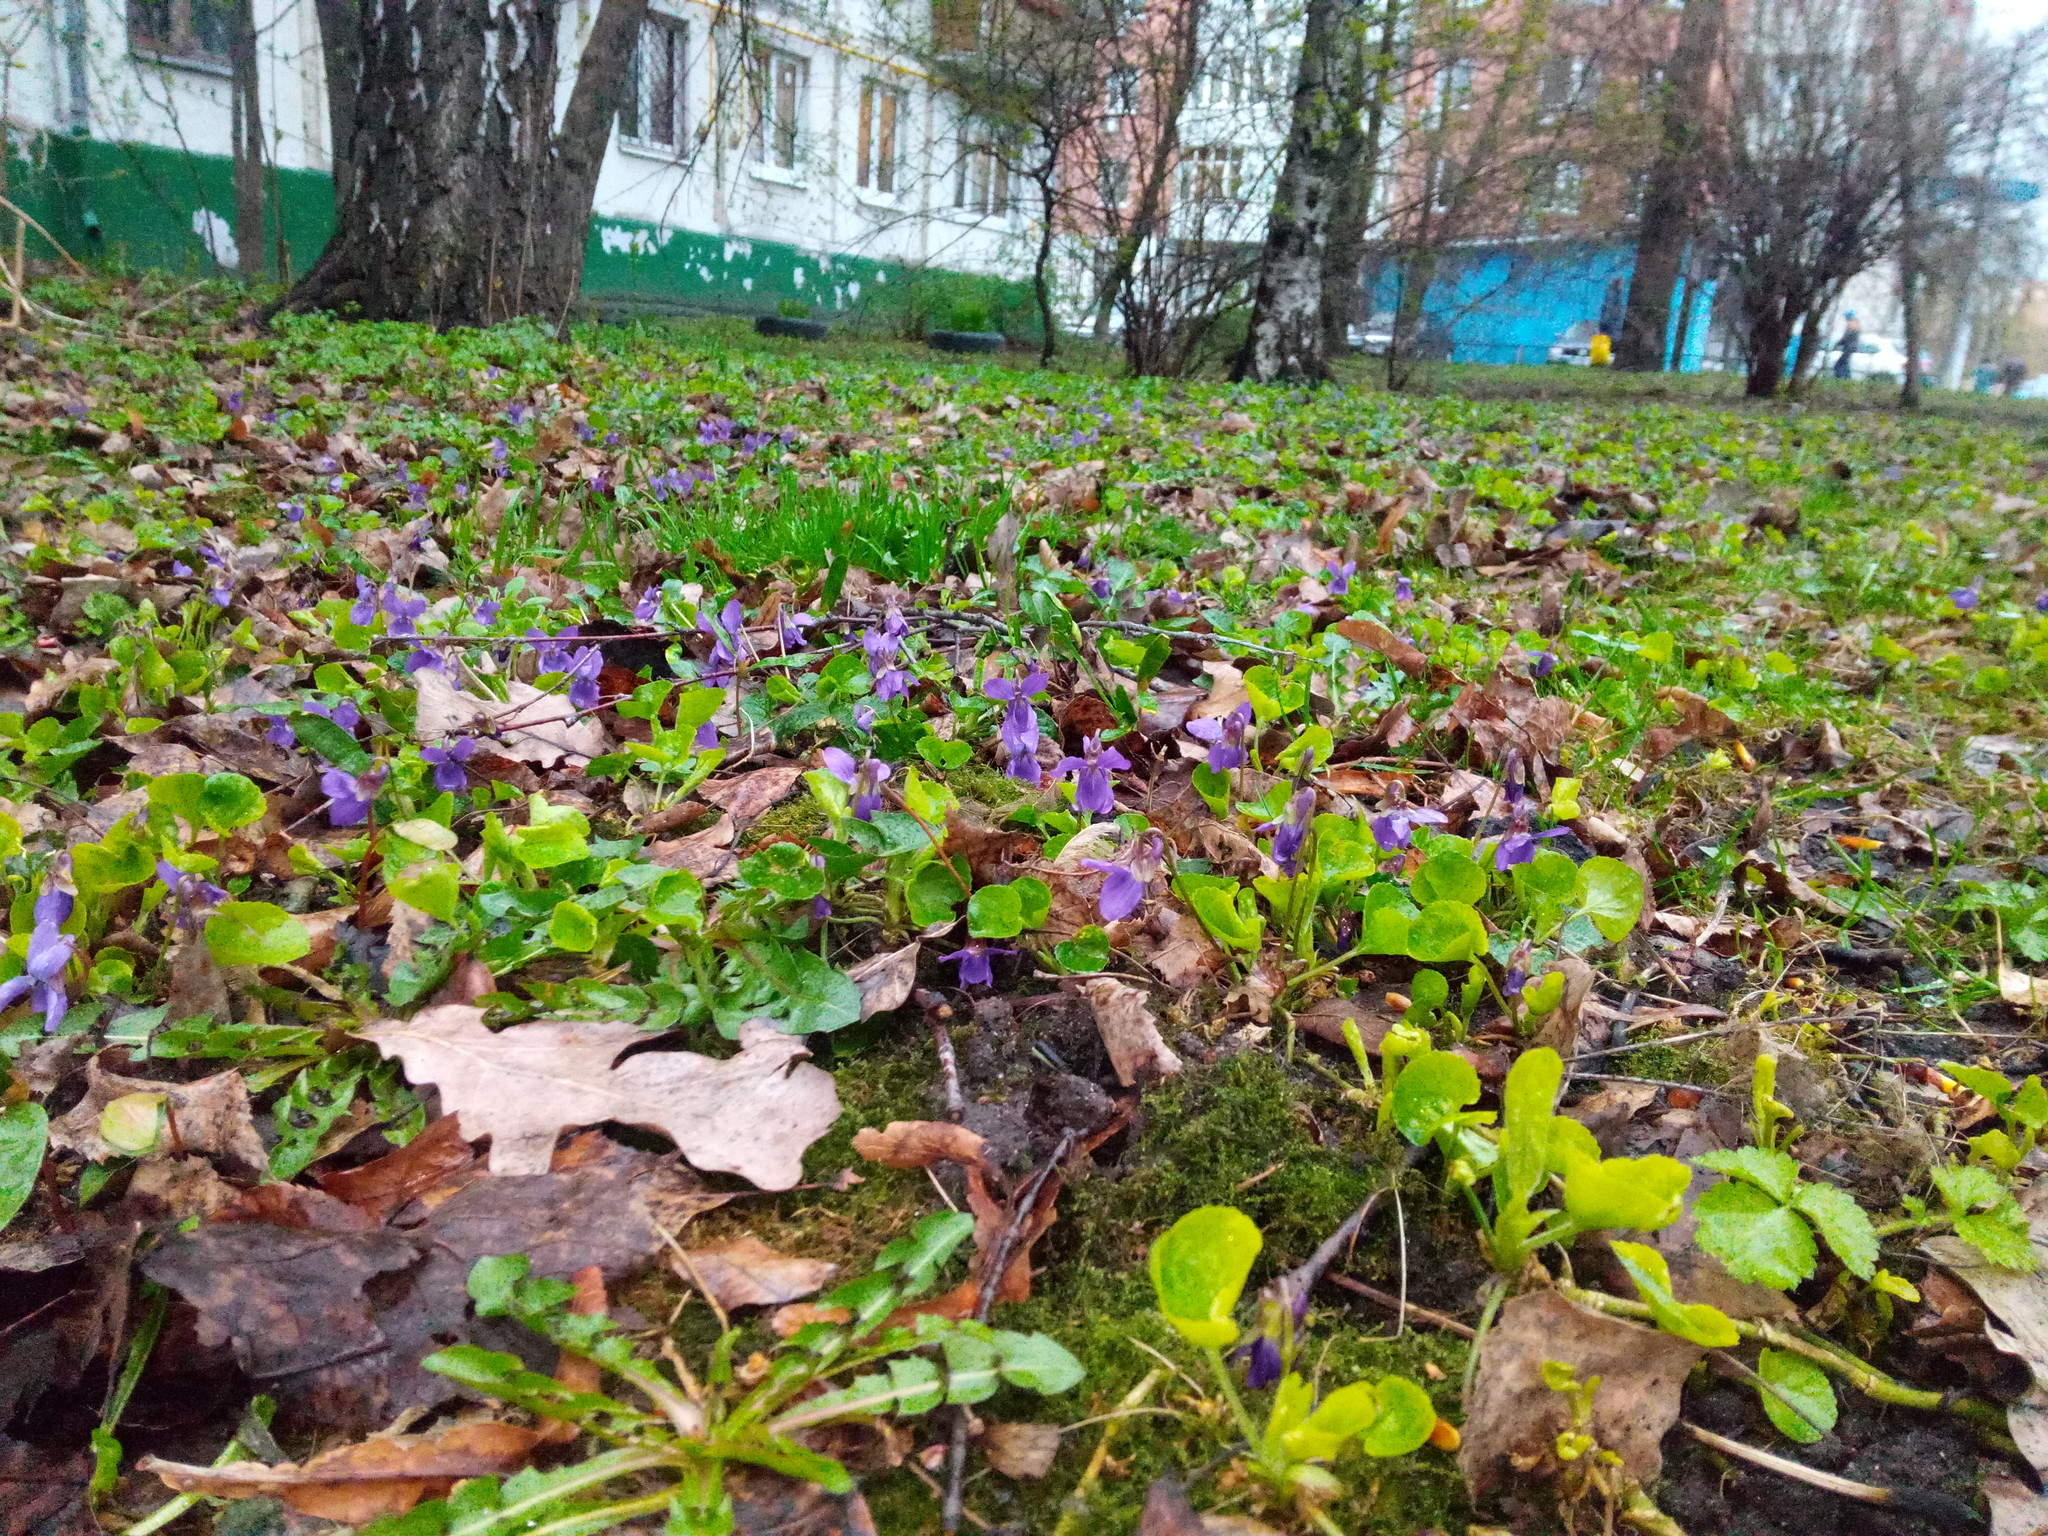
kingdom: Plantae
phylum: Tracheophyta
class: Magnoliopsida
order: Malpighiales
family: Violaceae
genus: Viola
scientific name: Viola odorata
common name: Sweet violet
